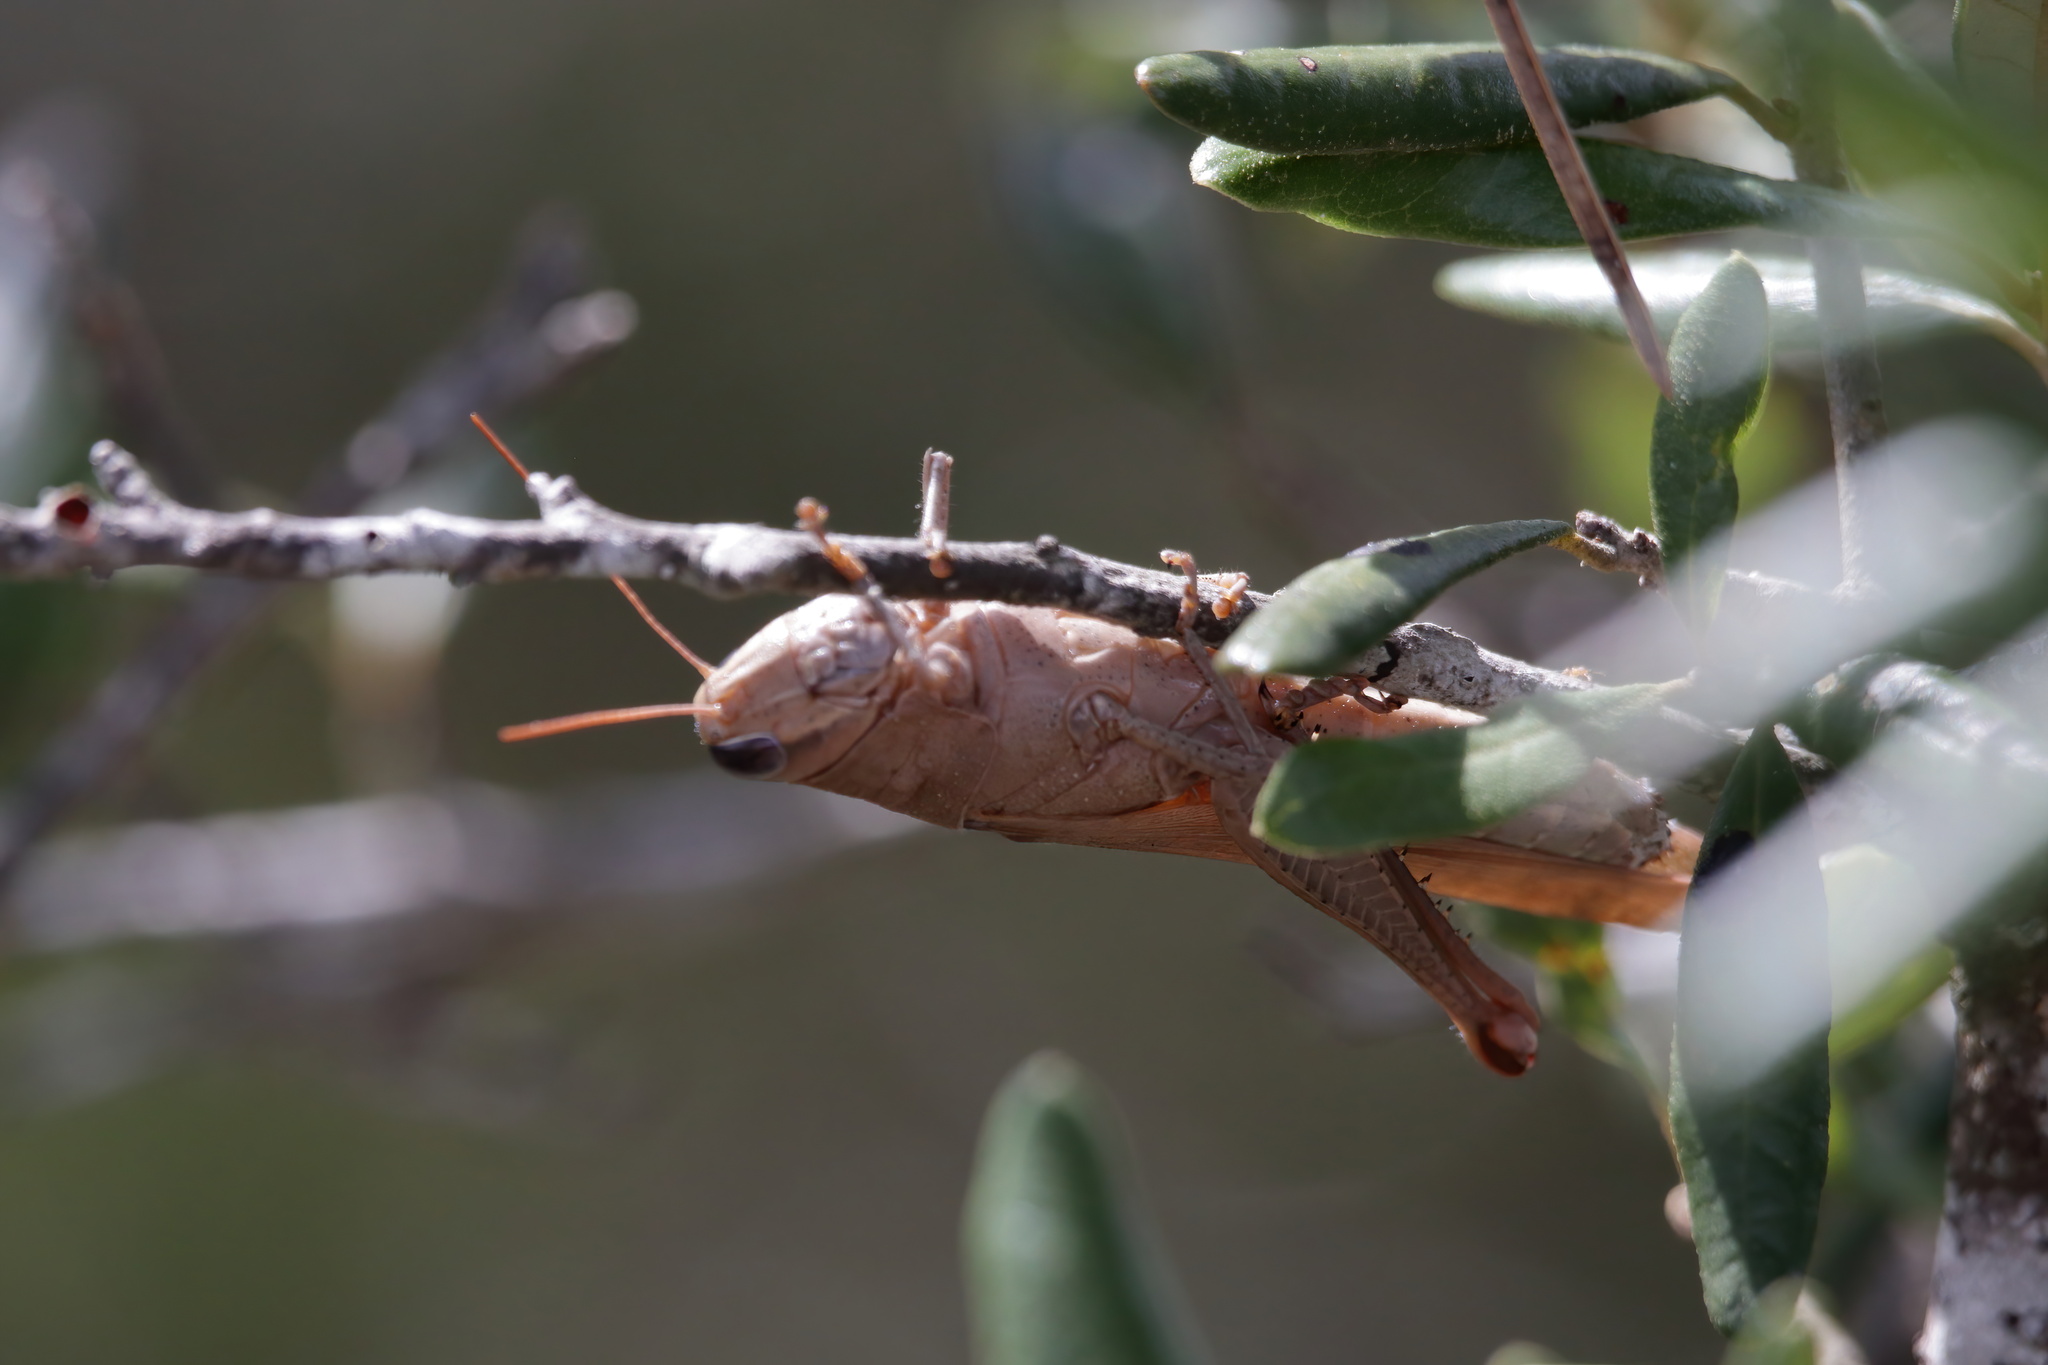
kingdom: Animalia
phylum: Arthropoda
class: Insecta
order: Orthoptera
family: Acrididae
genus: Schistocerca
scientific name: Schistocerca rubiginosa
